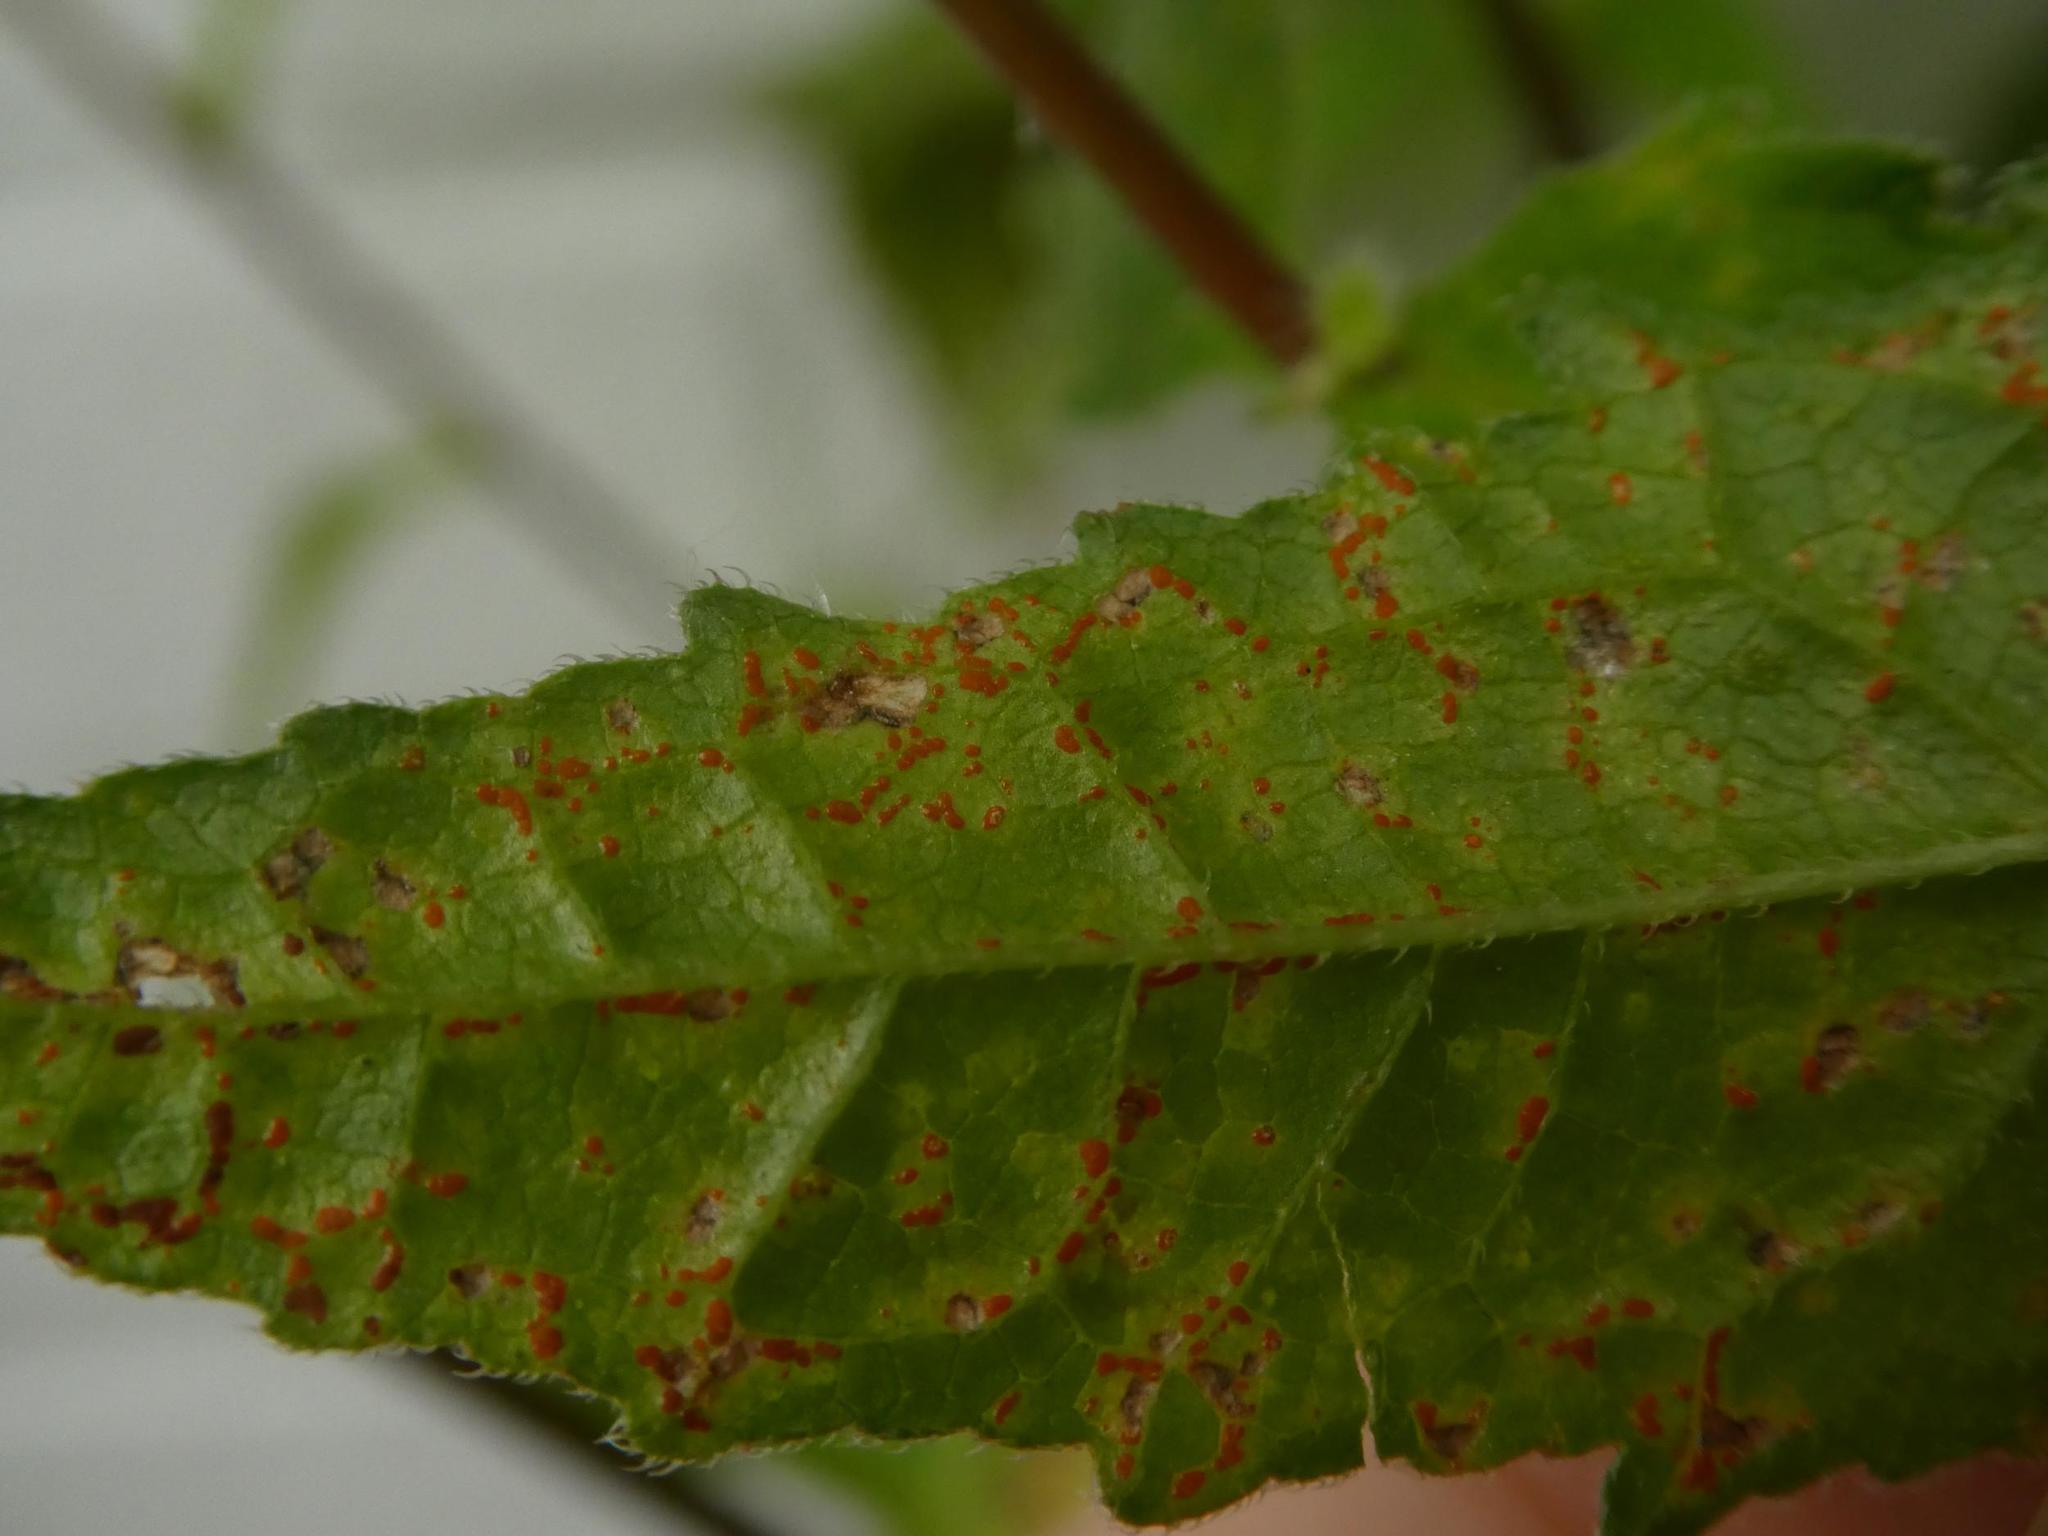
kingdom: Fungi
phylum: Basidiomycota
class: Pucciniomycetes
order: Pucciniales
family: Coleosporiaceae
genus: Coleosporium
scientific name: Coleosporium campanulae
